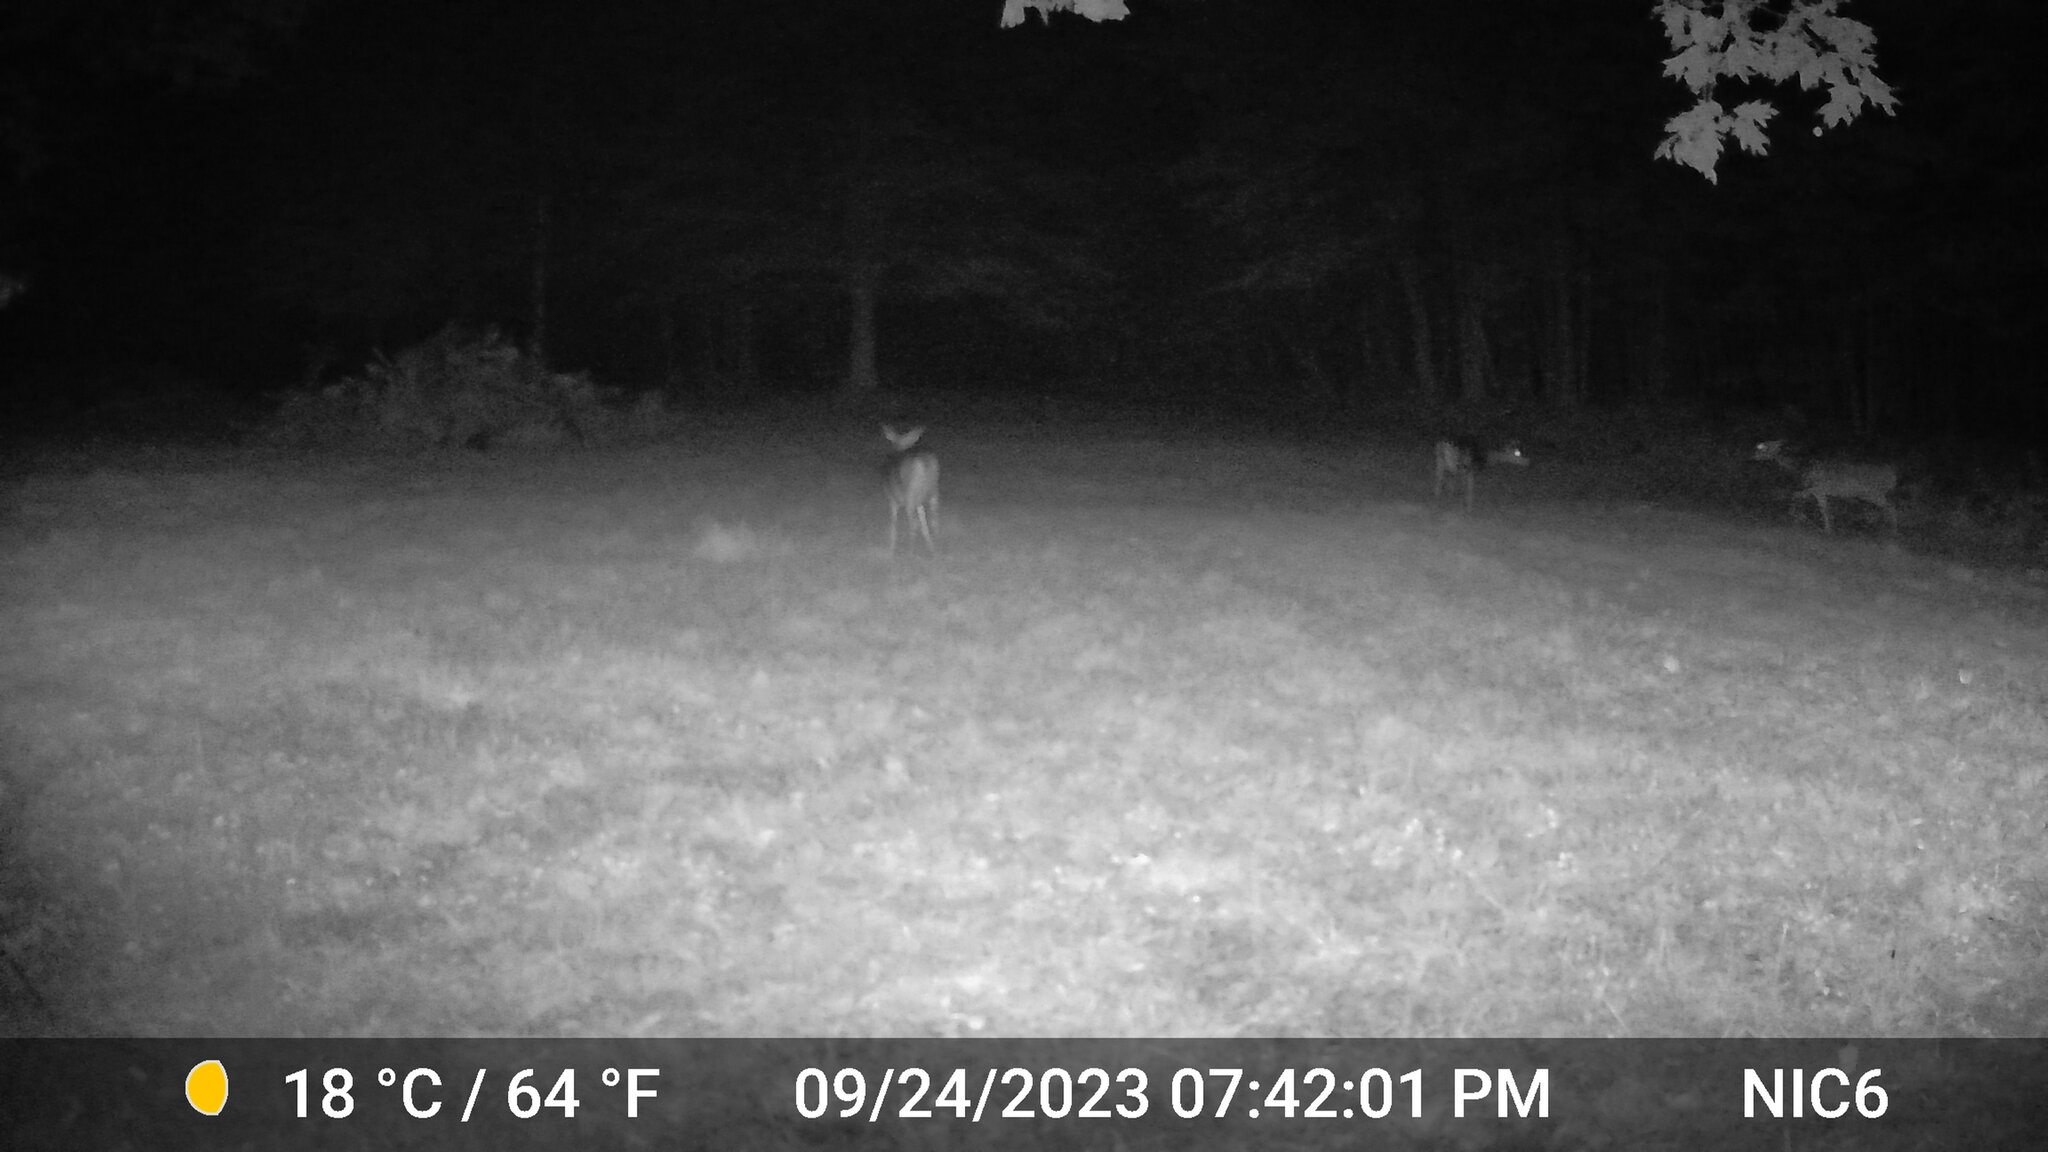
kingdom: Animalia
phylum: Chordata
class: Mammalia
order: Artiodactyla
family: Cervidae
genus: Odocoileus
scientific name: Odocoileus virginianus
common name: White-tailed deer
